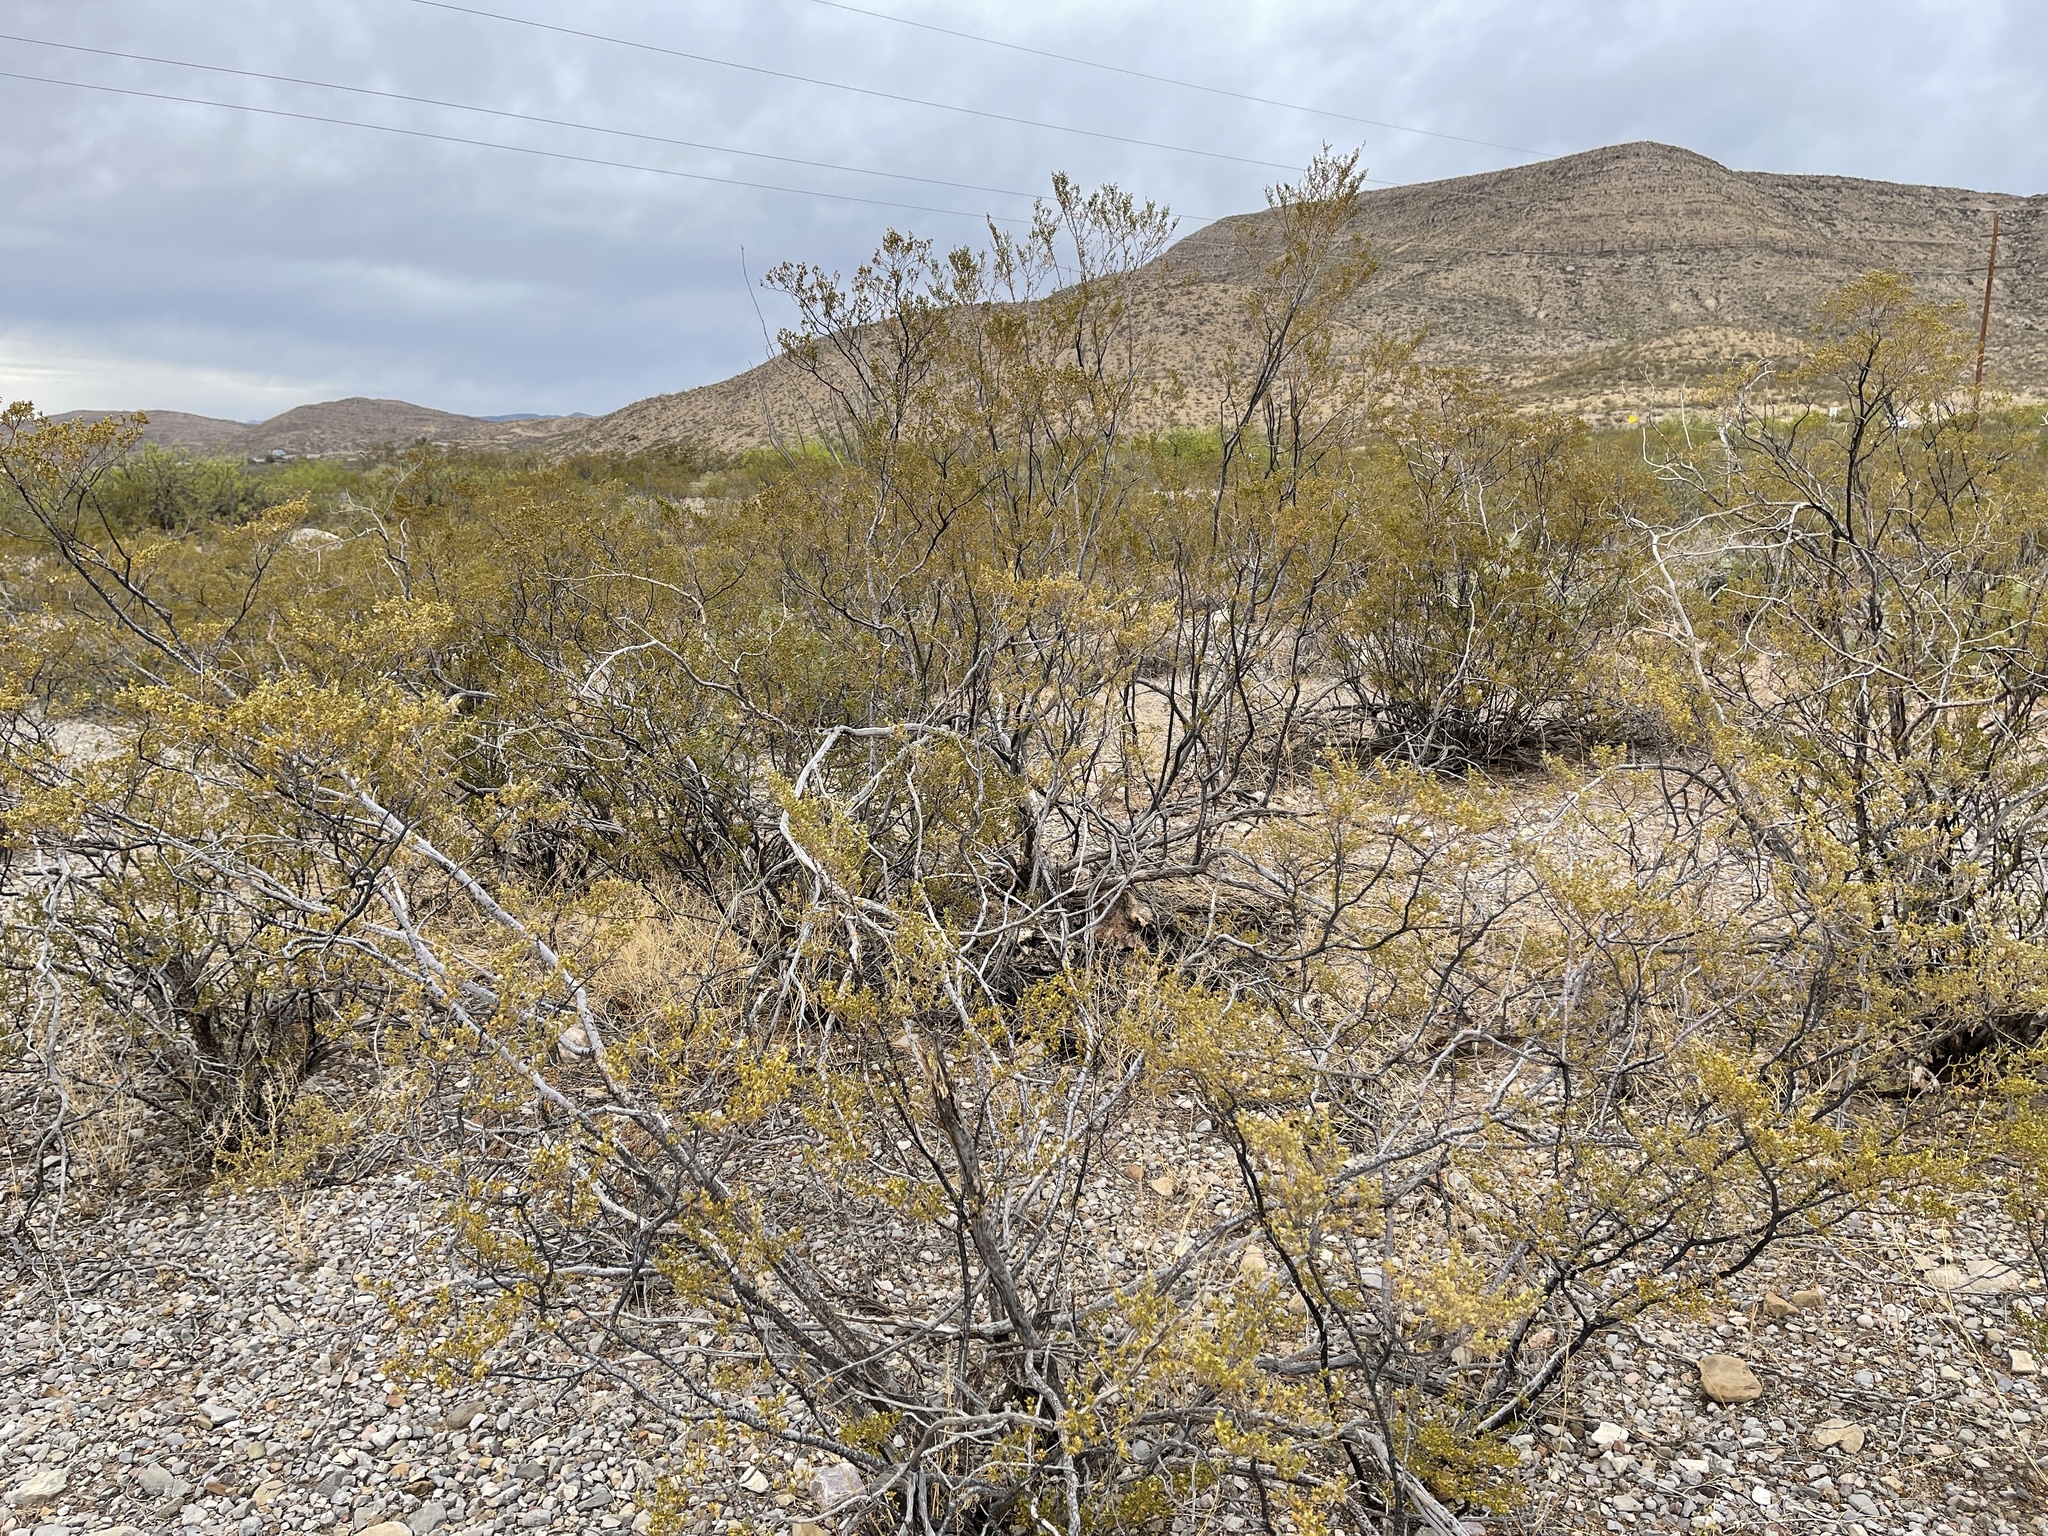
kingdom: Plantae
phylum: Tracheophyta
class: Magnoliopsida
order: Zygophyllales
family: Zygophyllaceae
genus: Larrea
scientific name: Larrea tridentata
